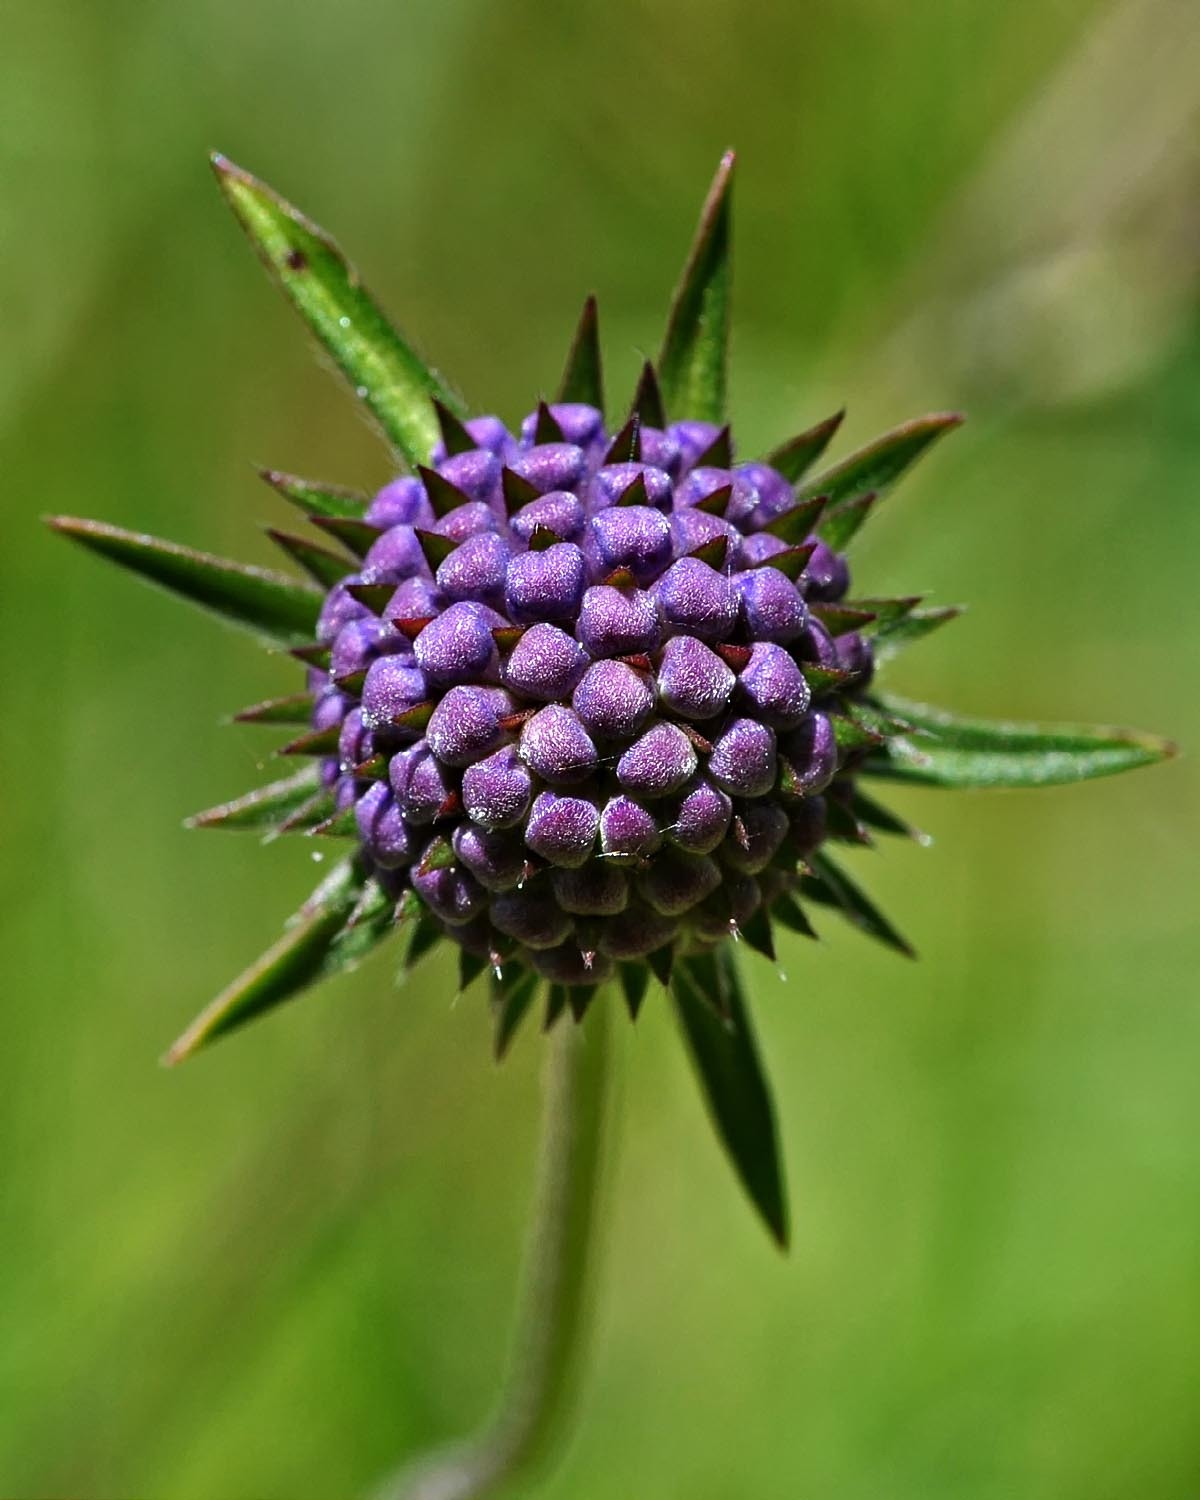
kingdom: Plantae
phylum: Tracheophyta
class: Magnoliopsida
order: Dipsacales
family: Caprifoliaceae
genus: Succisa
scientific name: Succisa pratensis
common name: Devil's-bit
